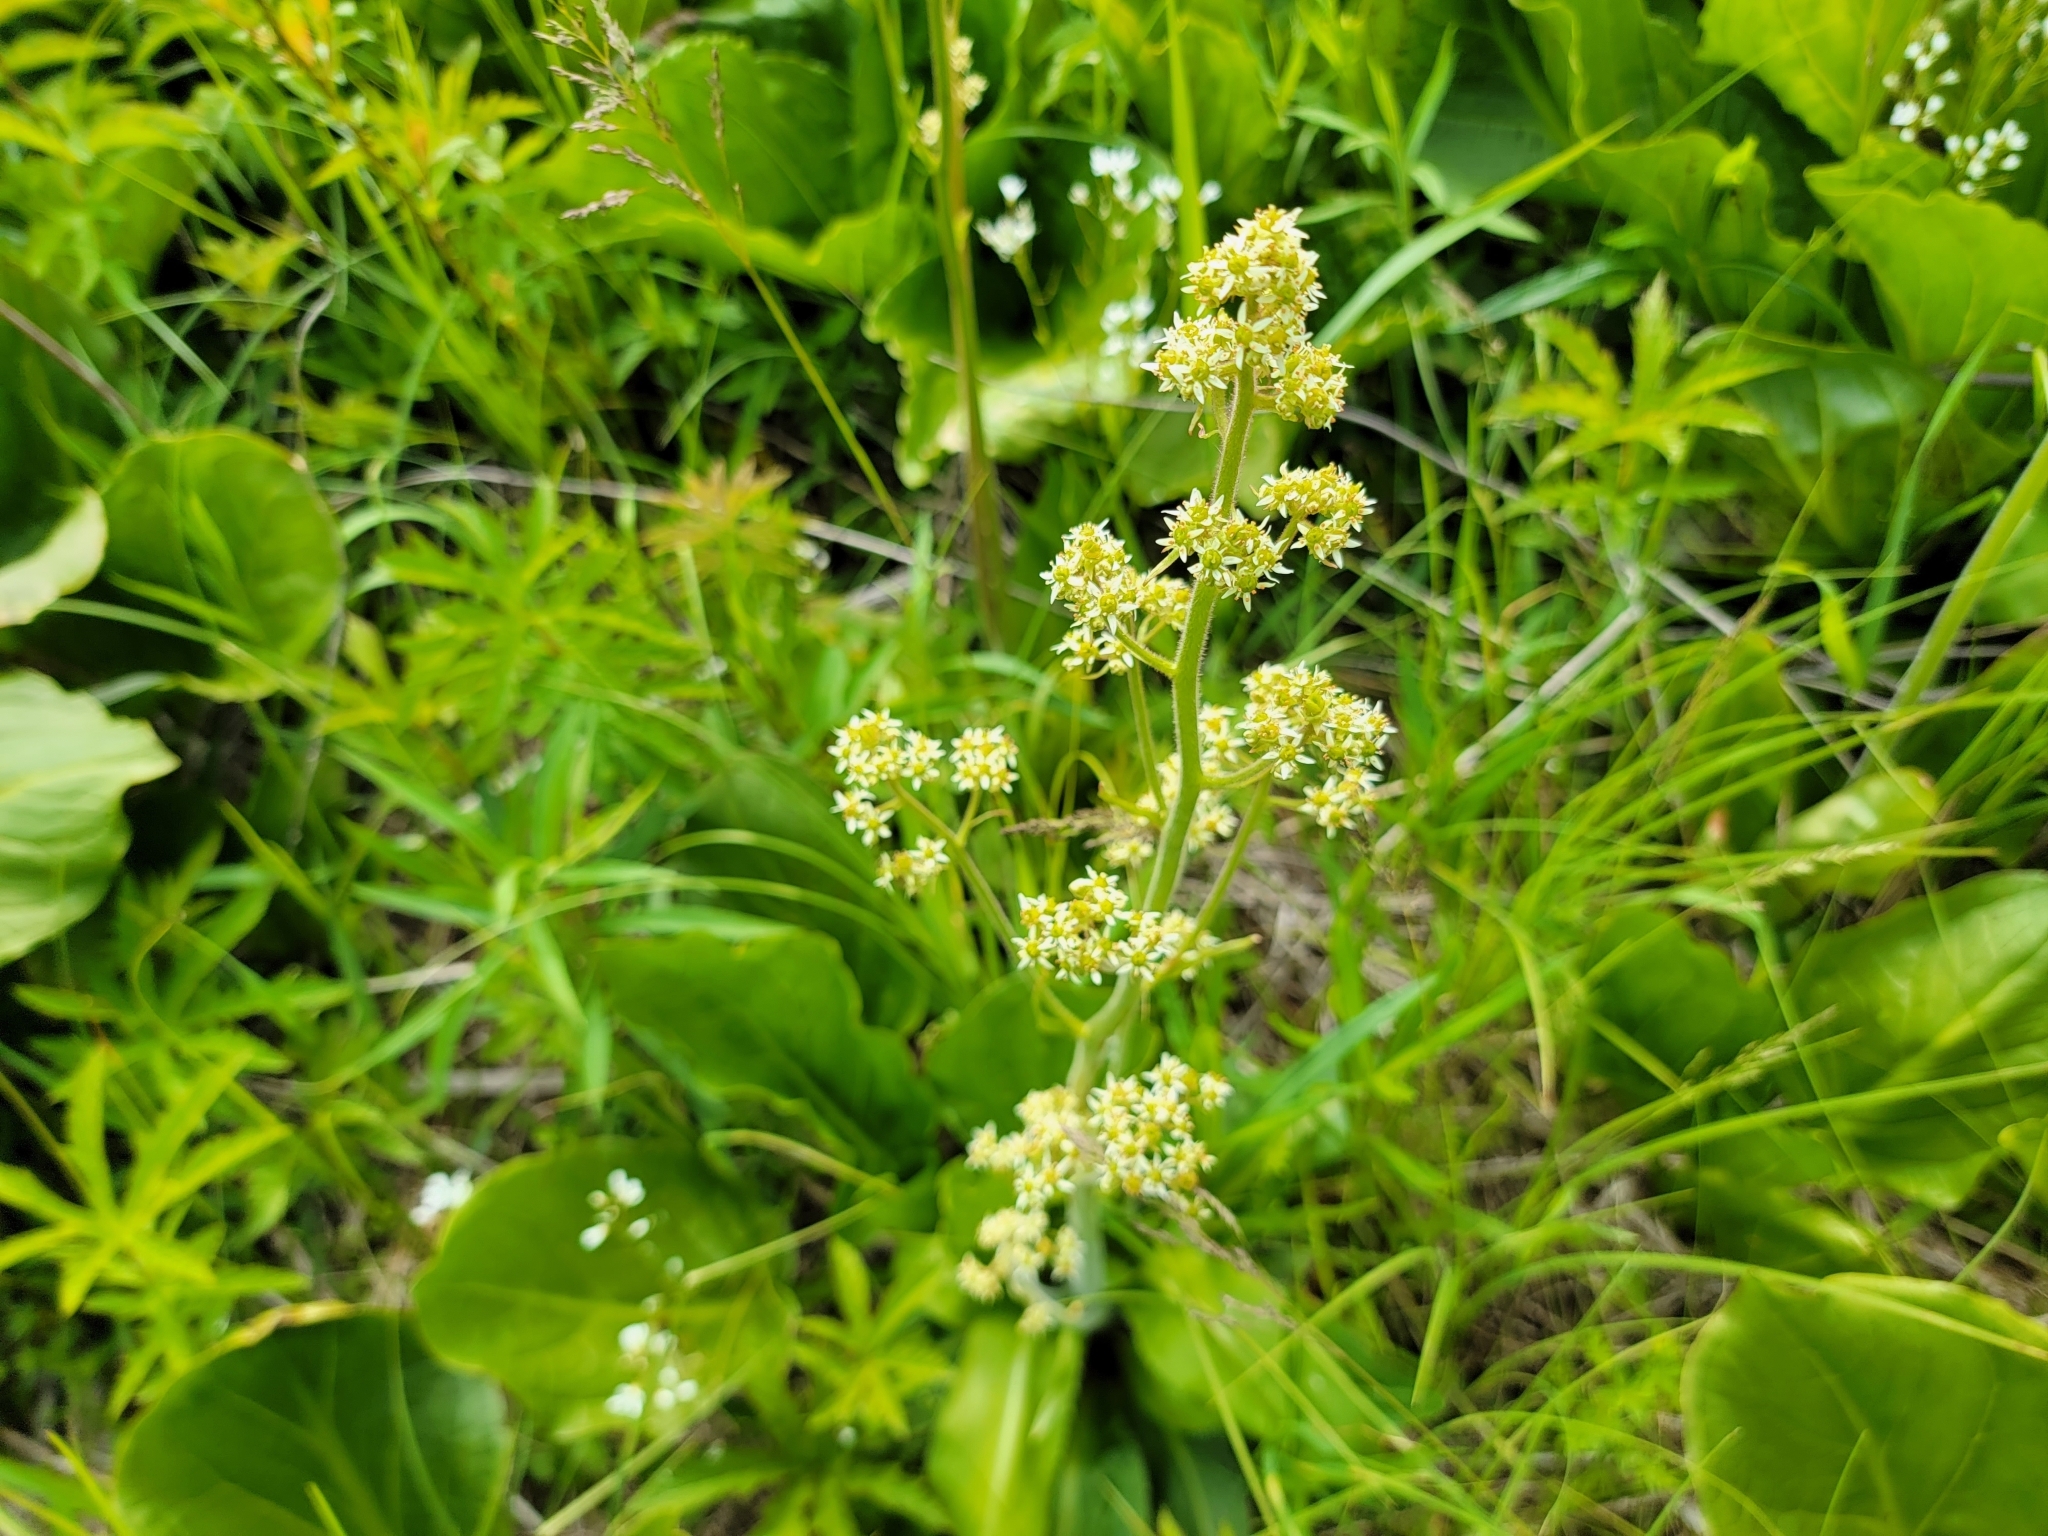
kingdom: Plantae
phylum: Tracheophyta
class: Magnoliopsida
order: Saxifragales
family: Saxifragaceae
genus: Micranthes
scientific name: Micranthes pensylvanica
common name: Marsh saxifrage
